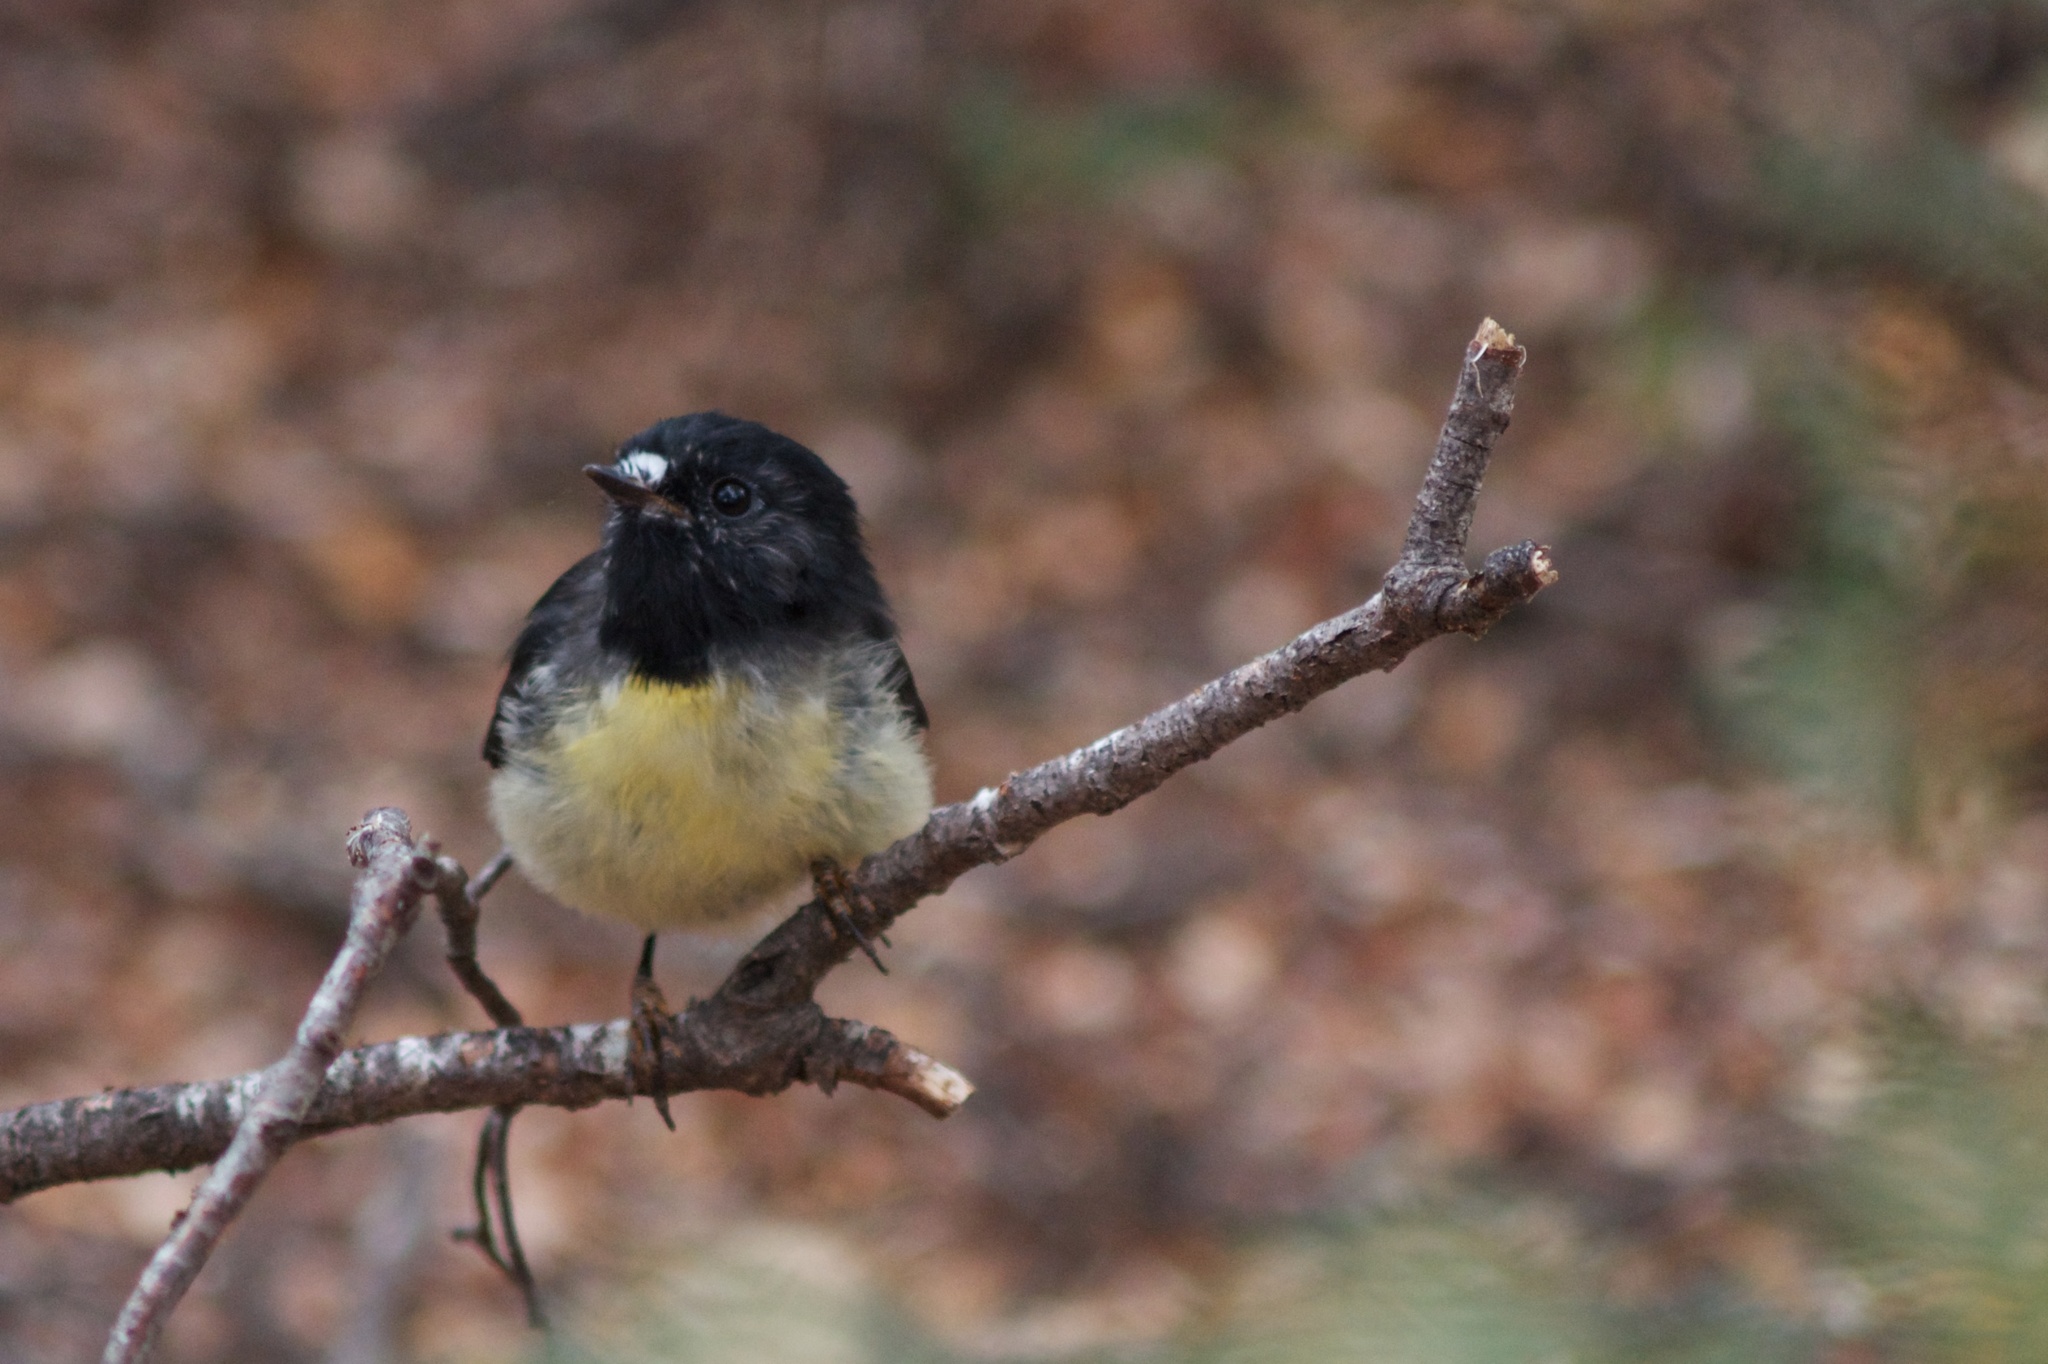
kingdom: Animalia
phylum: Chordata
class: Aves
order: Passeriformes
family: Petroicidae
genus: Petroica
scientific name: Petroica macrocephala
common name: Tomtit
